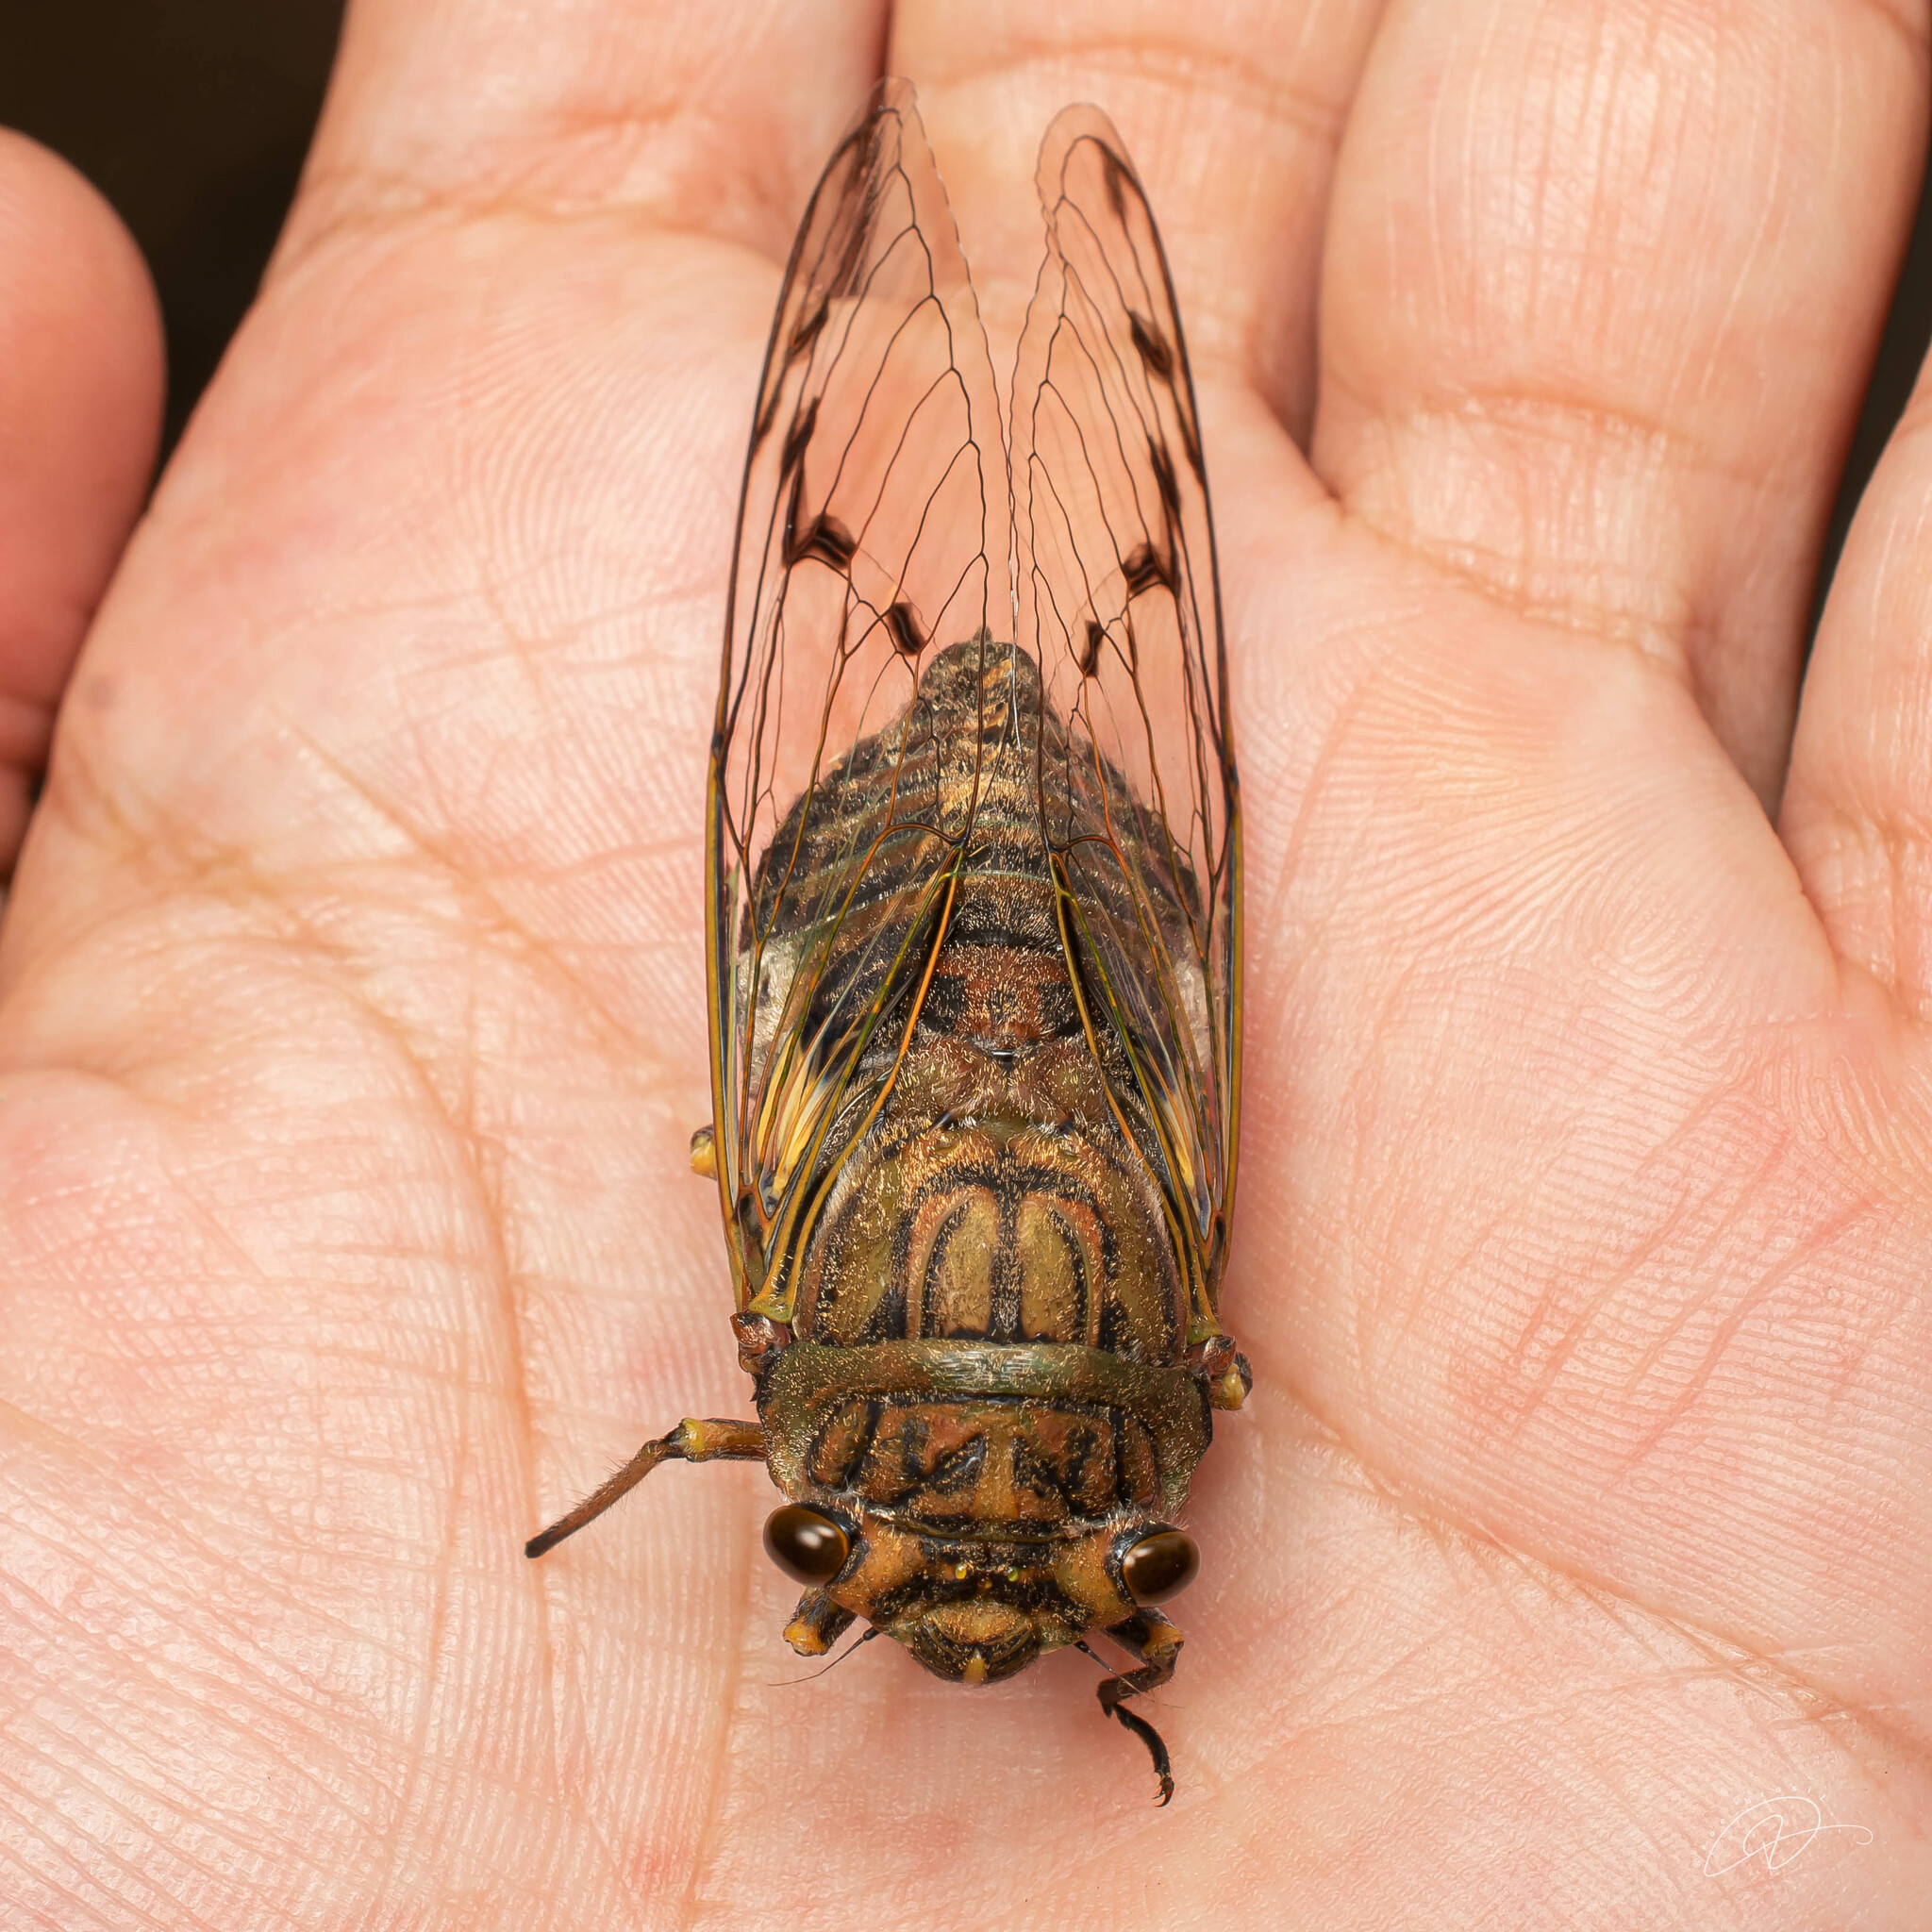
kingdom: Animalia
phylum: Arthropoda
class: Insecta
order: Hemiptera
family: Cicadidae
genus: Quesada
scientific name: Quesada sodalis
